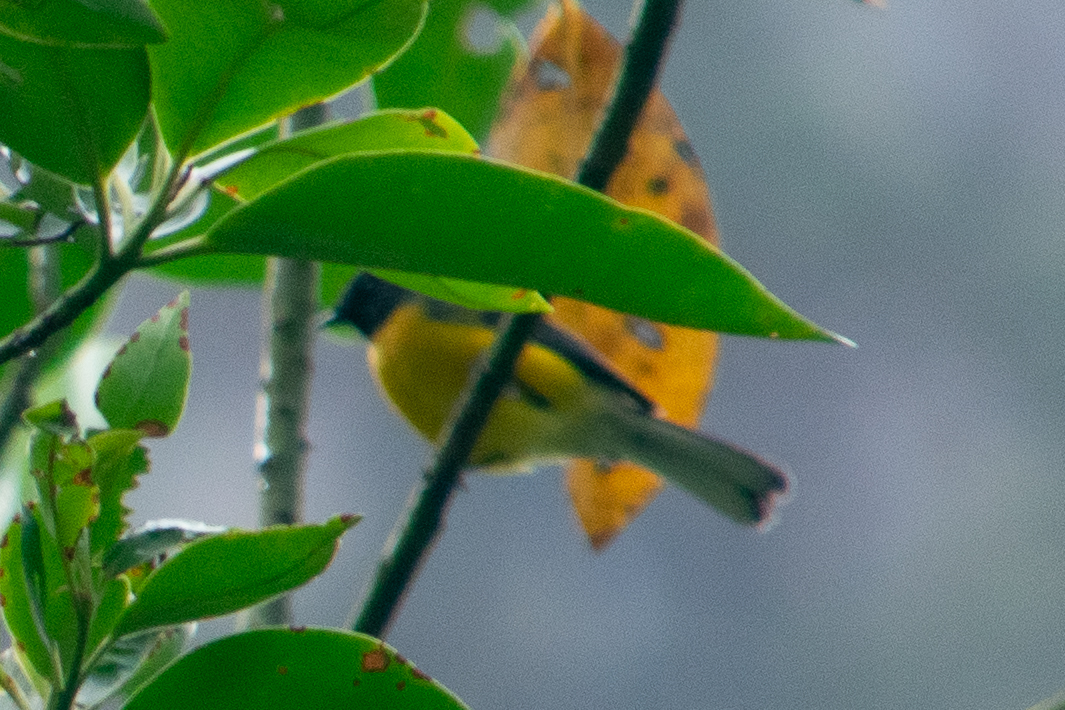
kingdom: Animalia
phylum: Chordata
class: Aves
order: Passeriformes
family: Parulidae
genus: Myioborus
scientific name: Myioborus miniatus
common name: Slate-throated redstart
